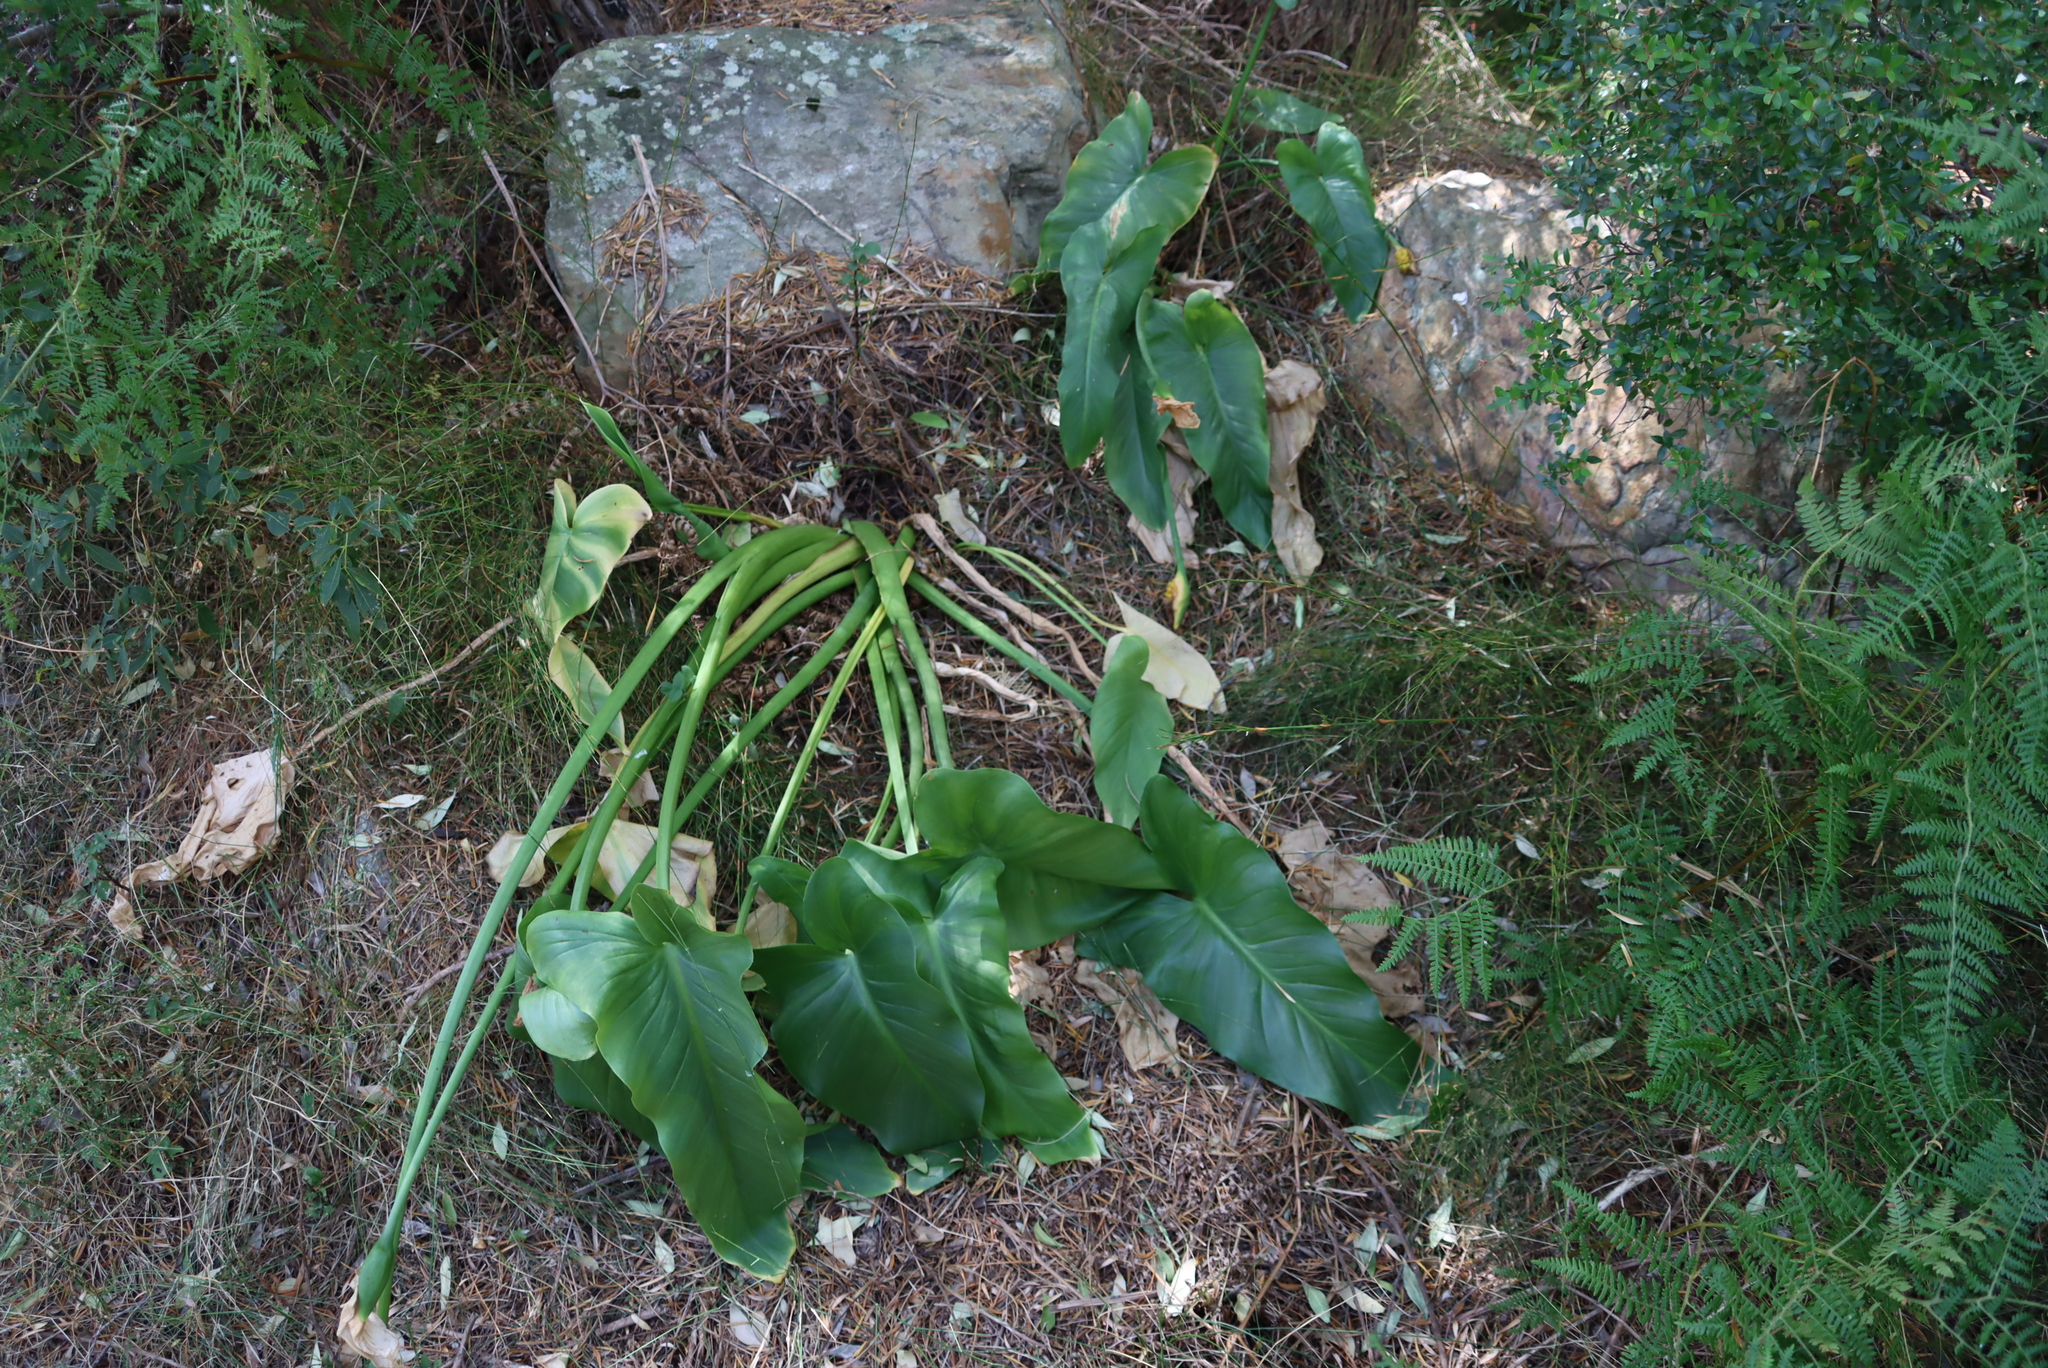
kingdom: Plantae
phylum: Tracheophyta
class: Liliopsida
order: Alismatales
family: Araceae
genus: Zantedeschia
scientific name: Zantedeschia aethiopica
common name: Altar-lily
